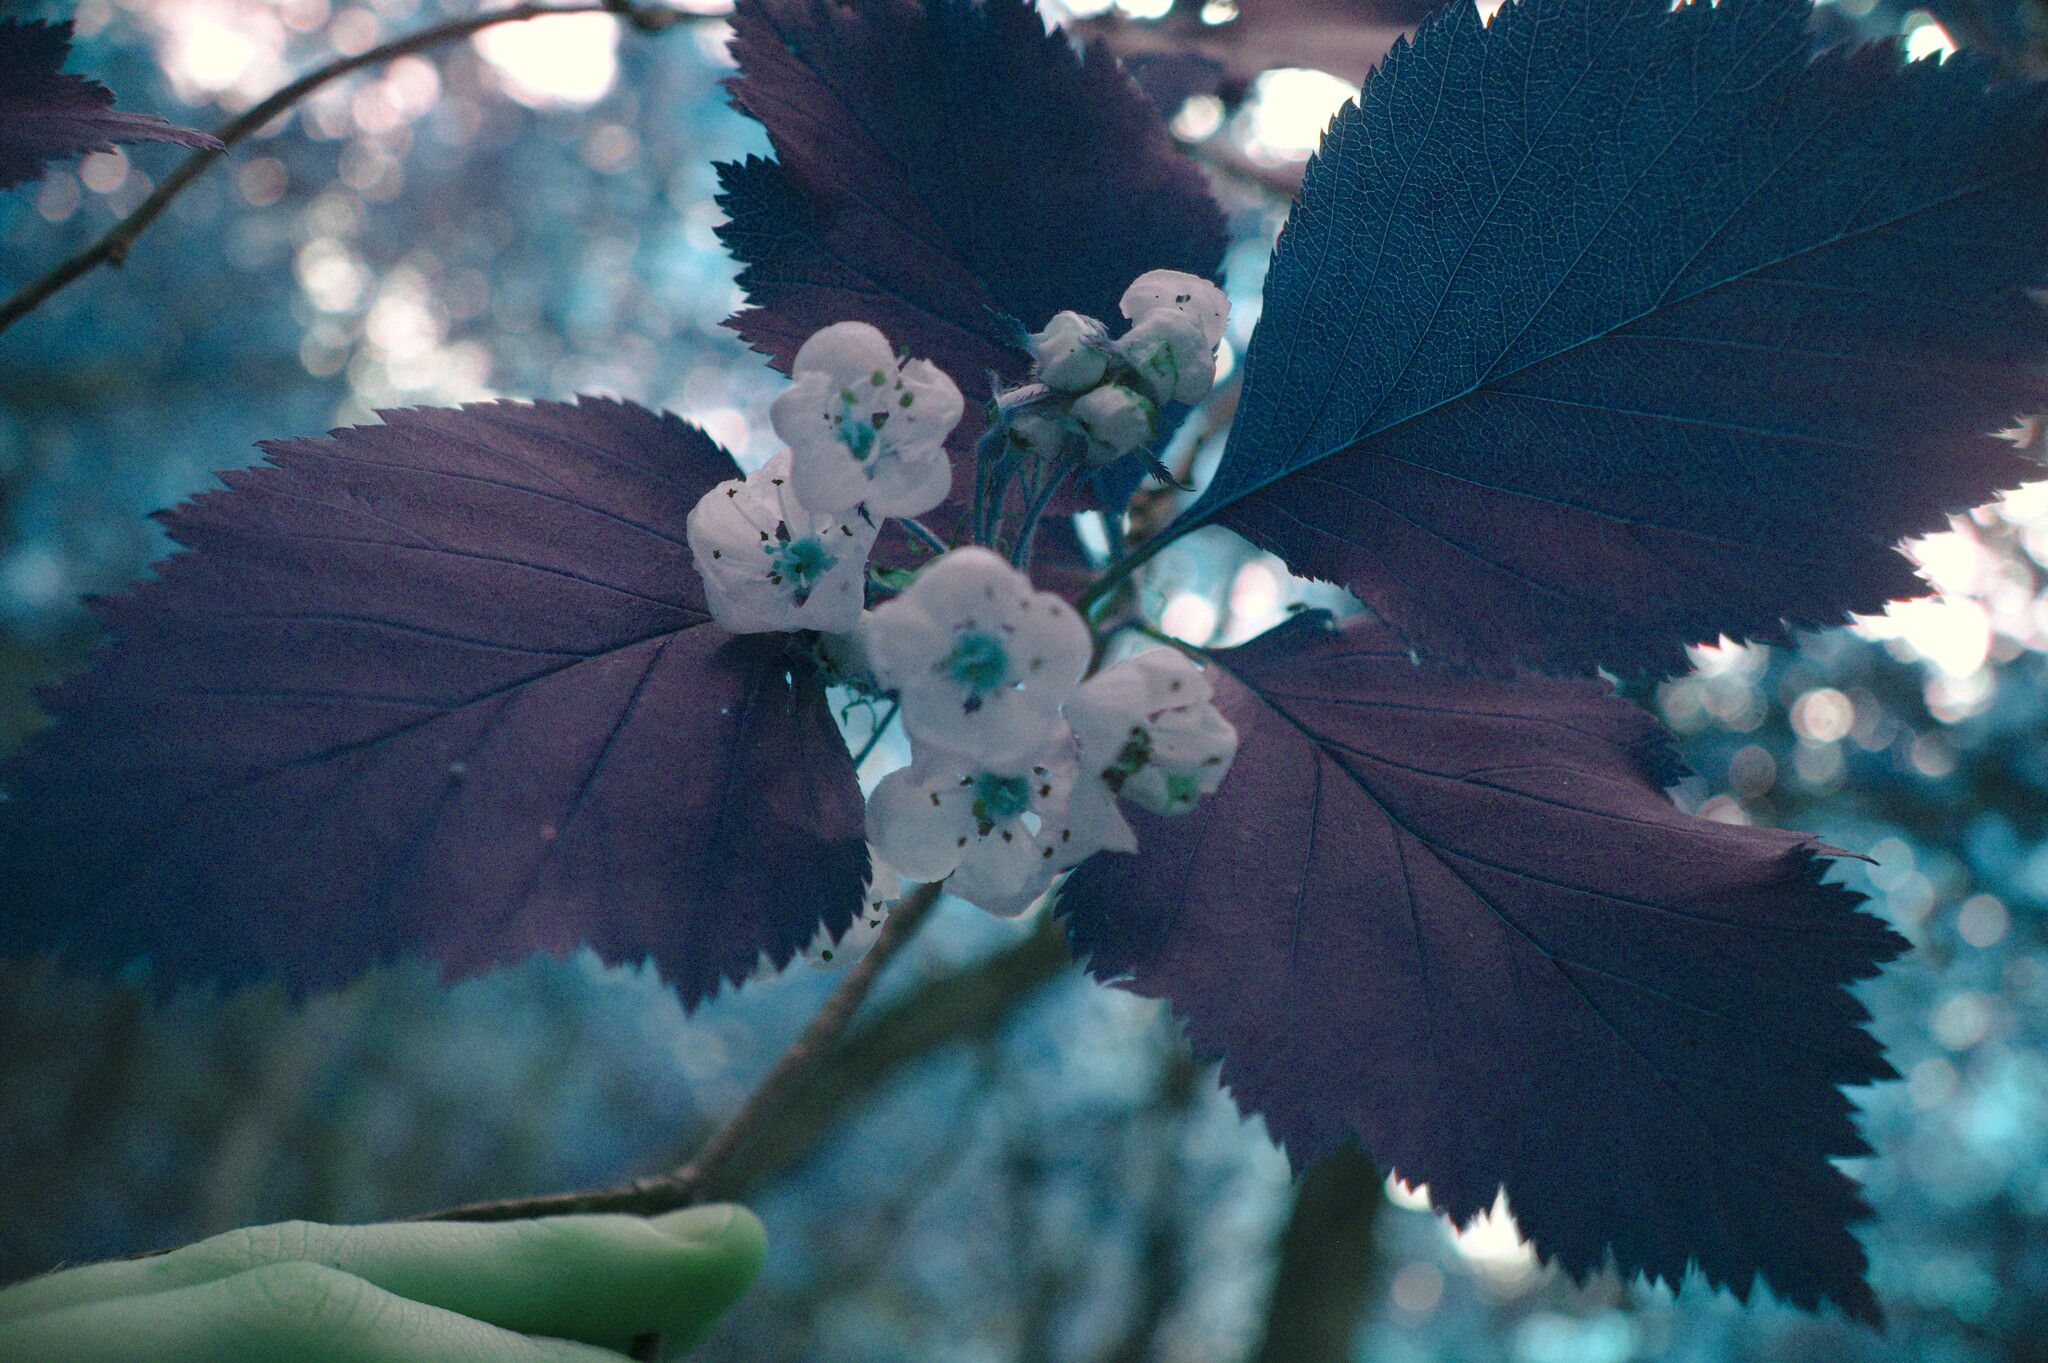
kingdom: Plantae
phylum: Tracheophyta
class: Magnoliopsida
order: Rosales
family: Rosaceae
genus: Crataegus
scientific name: Crataegus macracantha
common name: Large-thorn hawthorn
